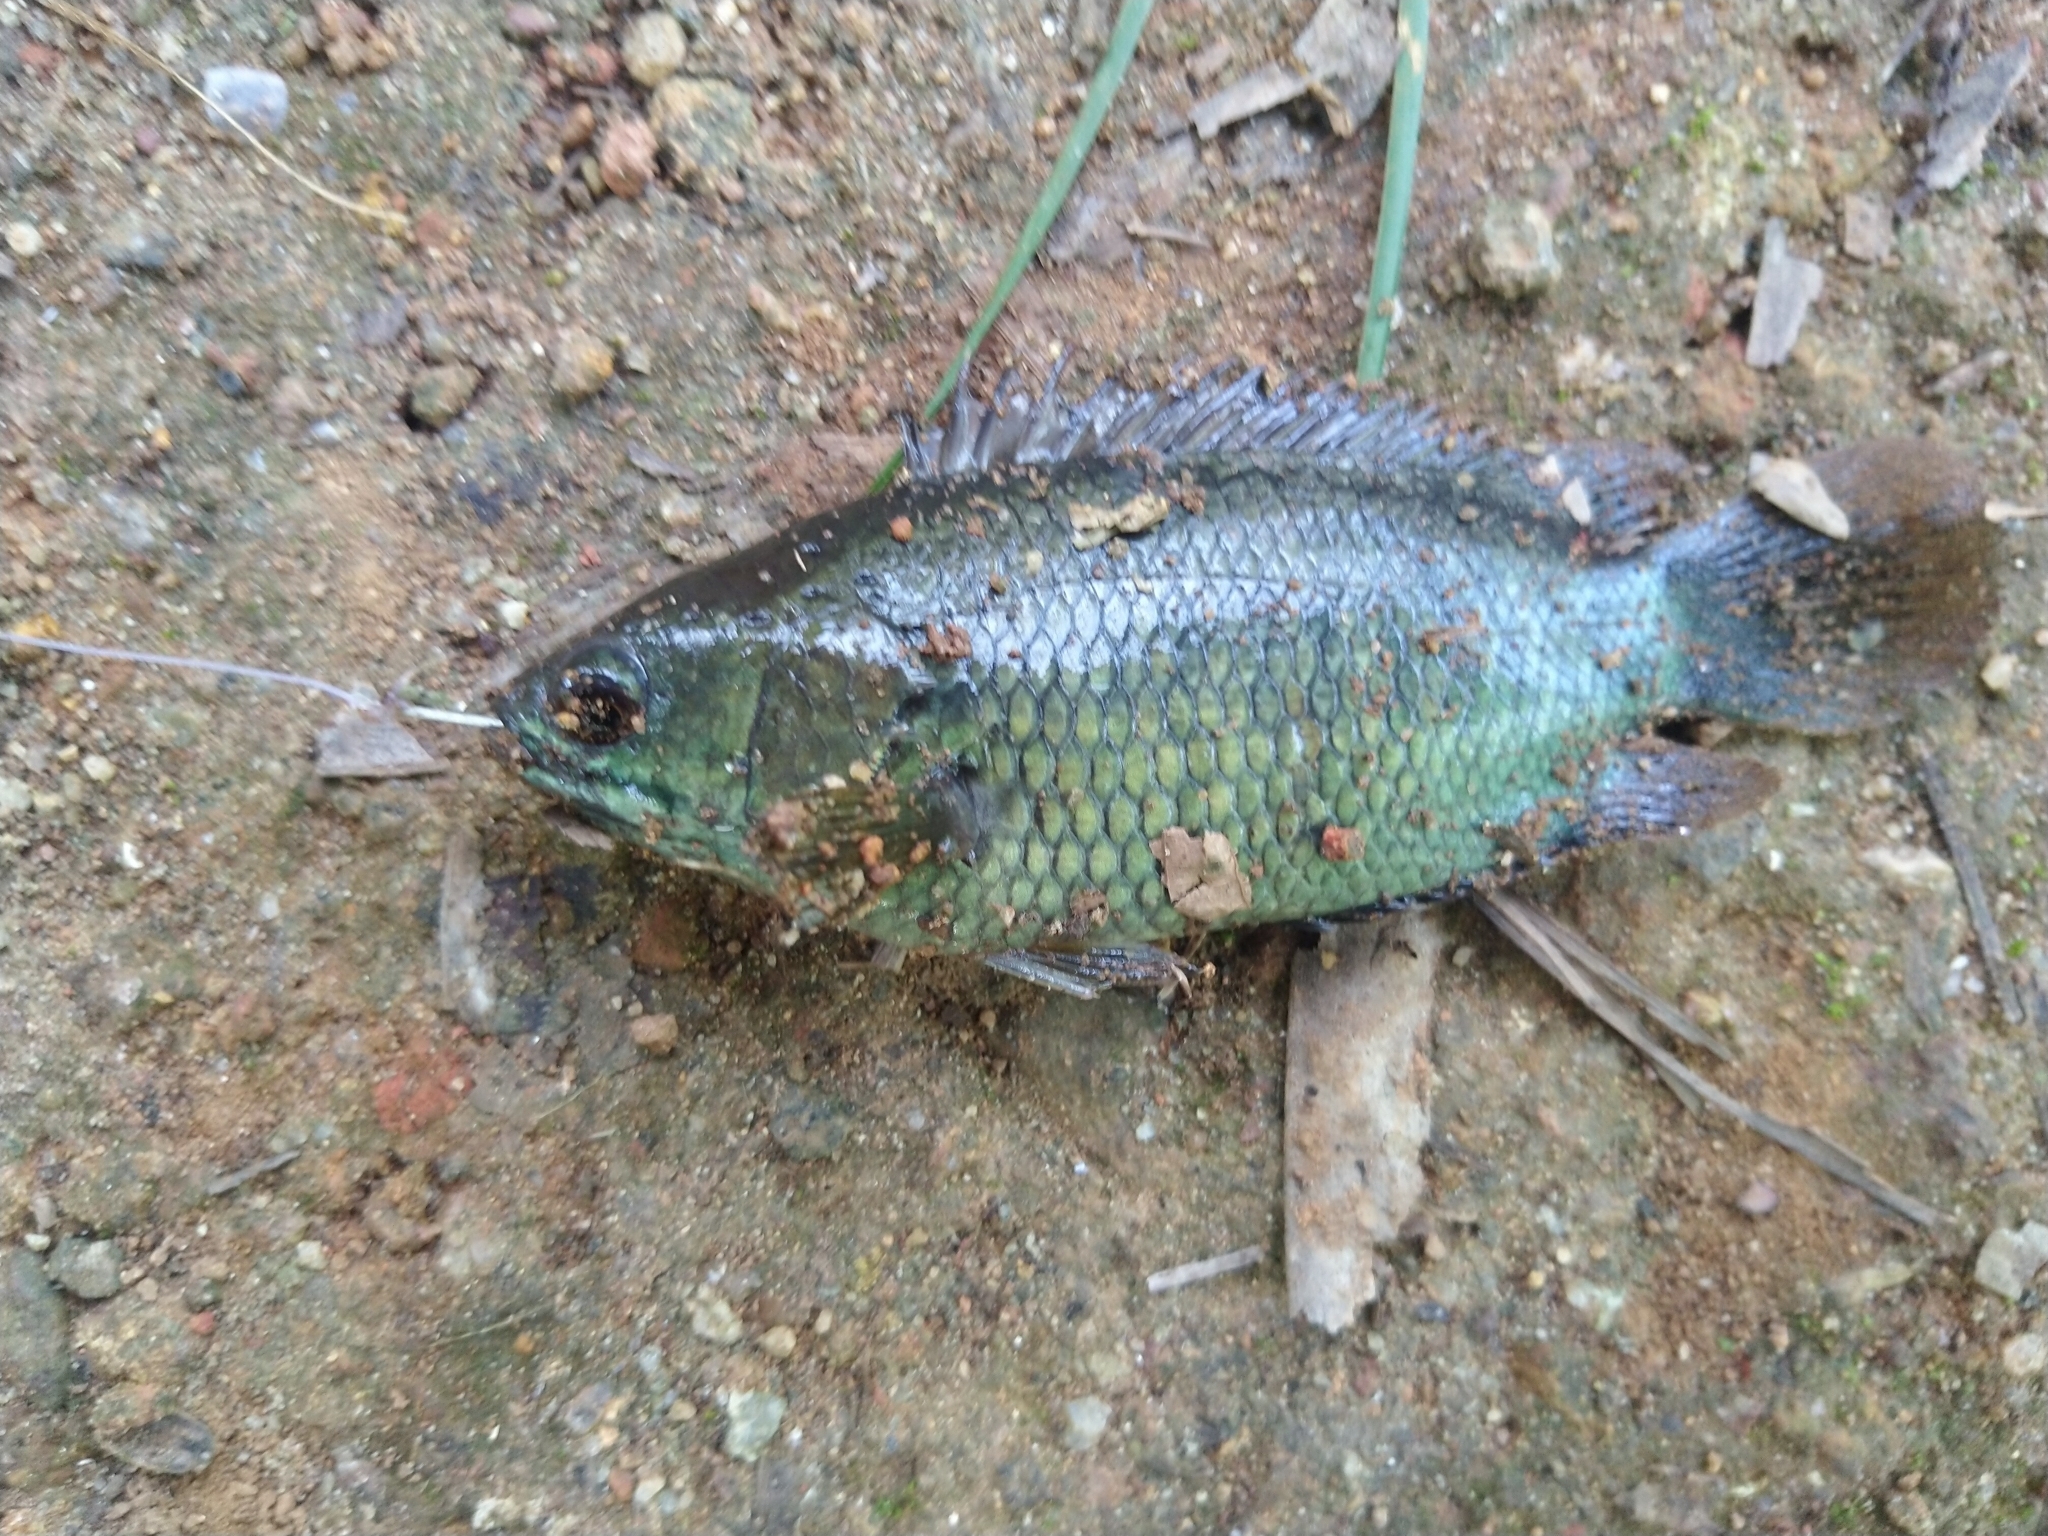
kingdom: Animalia
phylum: Chordata
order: Perciformes
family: Anabantidae
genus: Anabas
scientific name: Anabas testudineus
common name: Climbing perch
